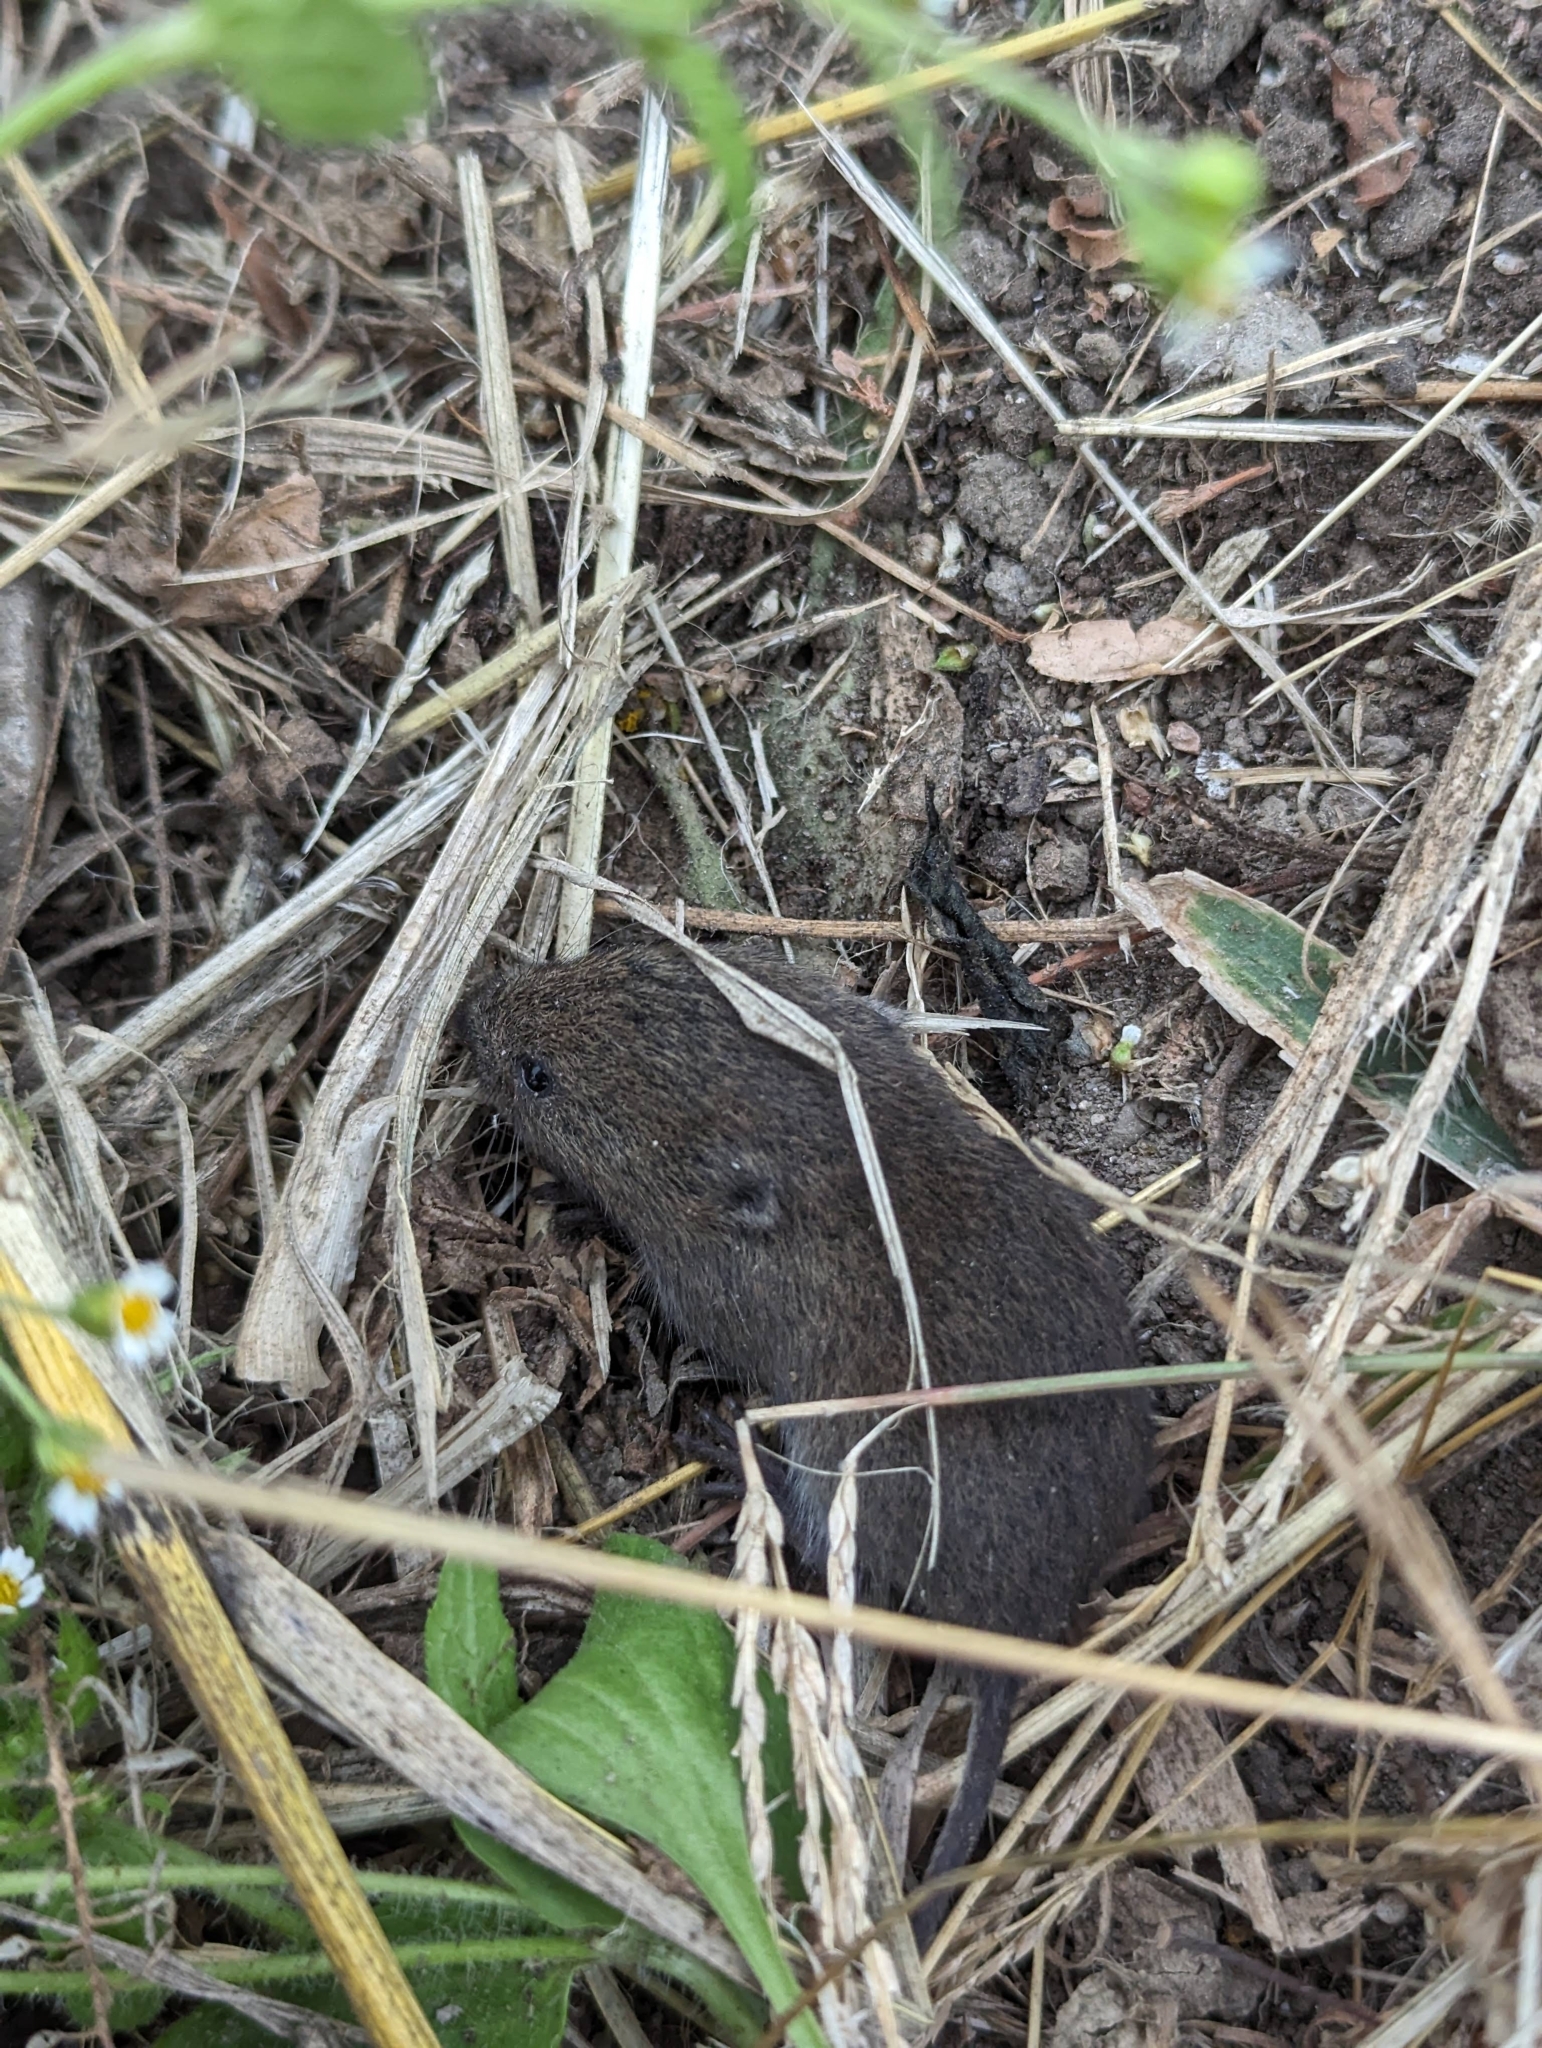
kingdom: Animalia
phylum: Chordata
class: Mammalia
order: Rodentia
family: Cricetidae
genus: Microtus
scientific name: Microtus pennsylvanicus
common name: Meadow vole
